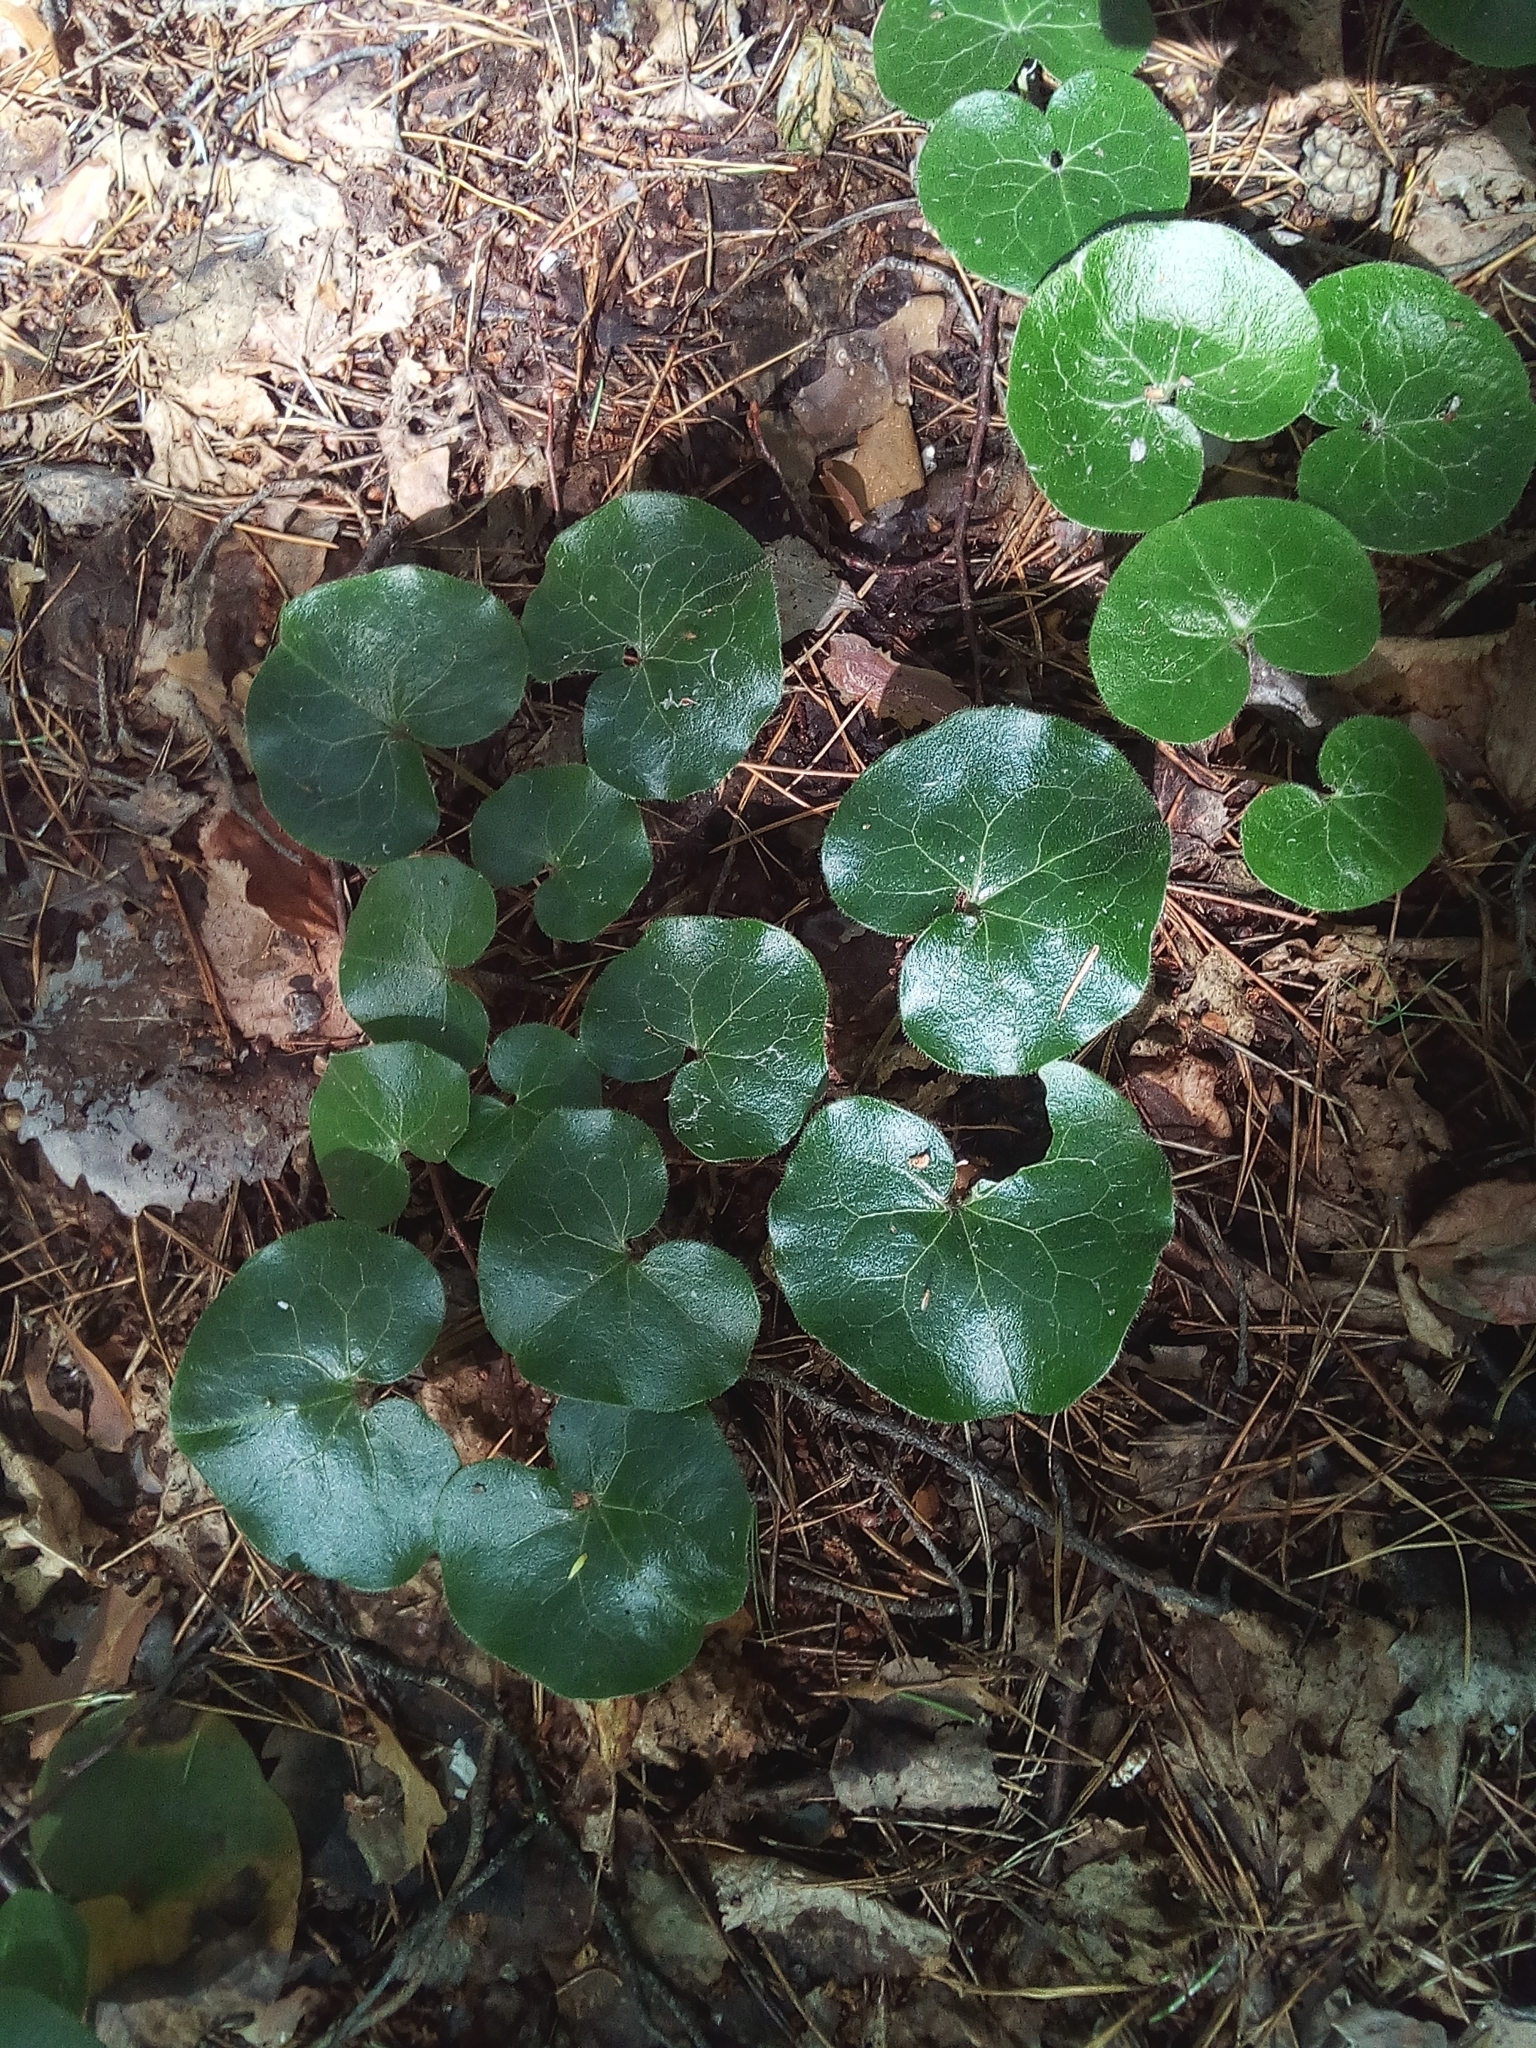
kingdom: Plantae
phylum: Tracheophyta
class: Magnoliopsida
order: Piperales
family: Aristolochiaceae
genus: Asarum
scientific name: Asarum europaeum
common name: Asarabacca
